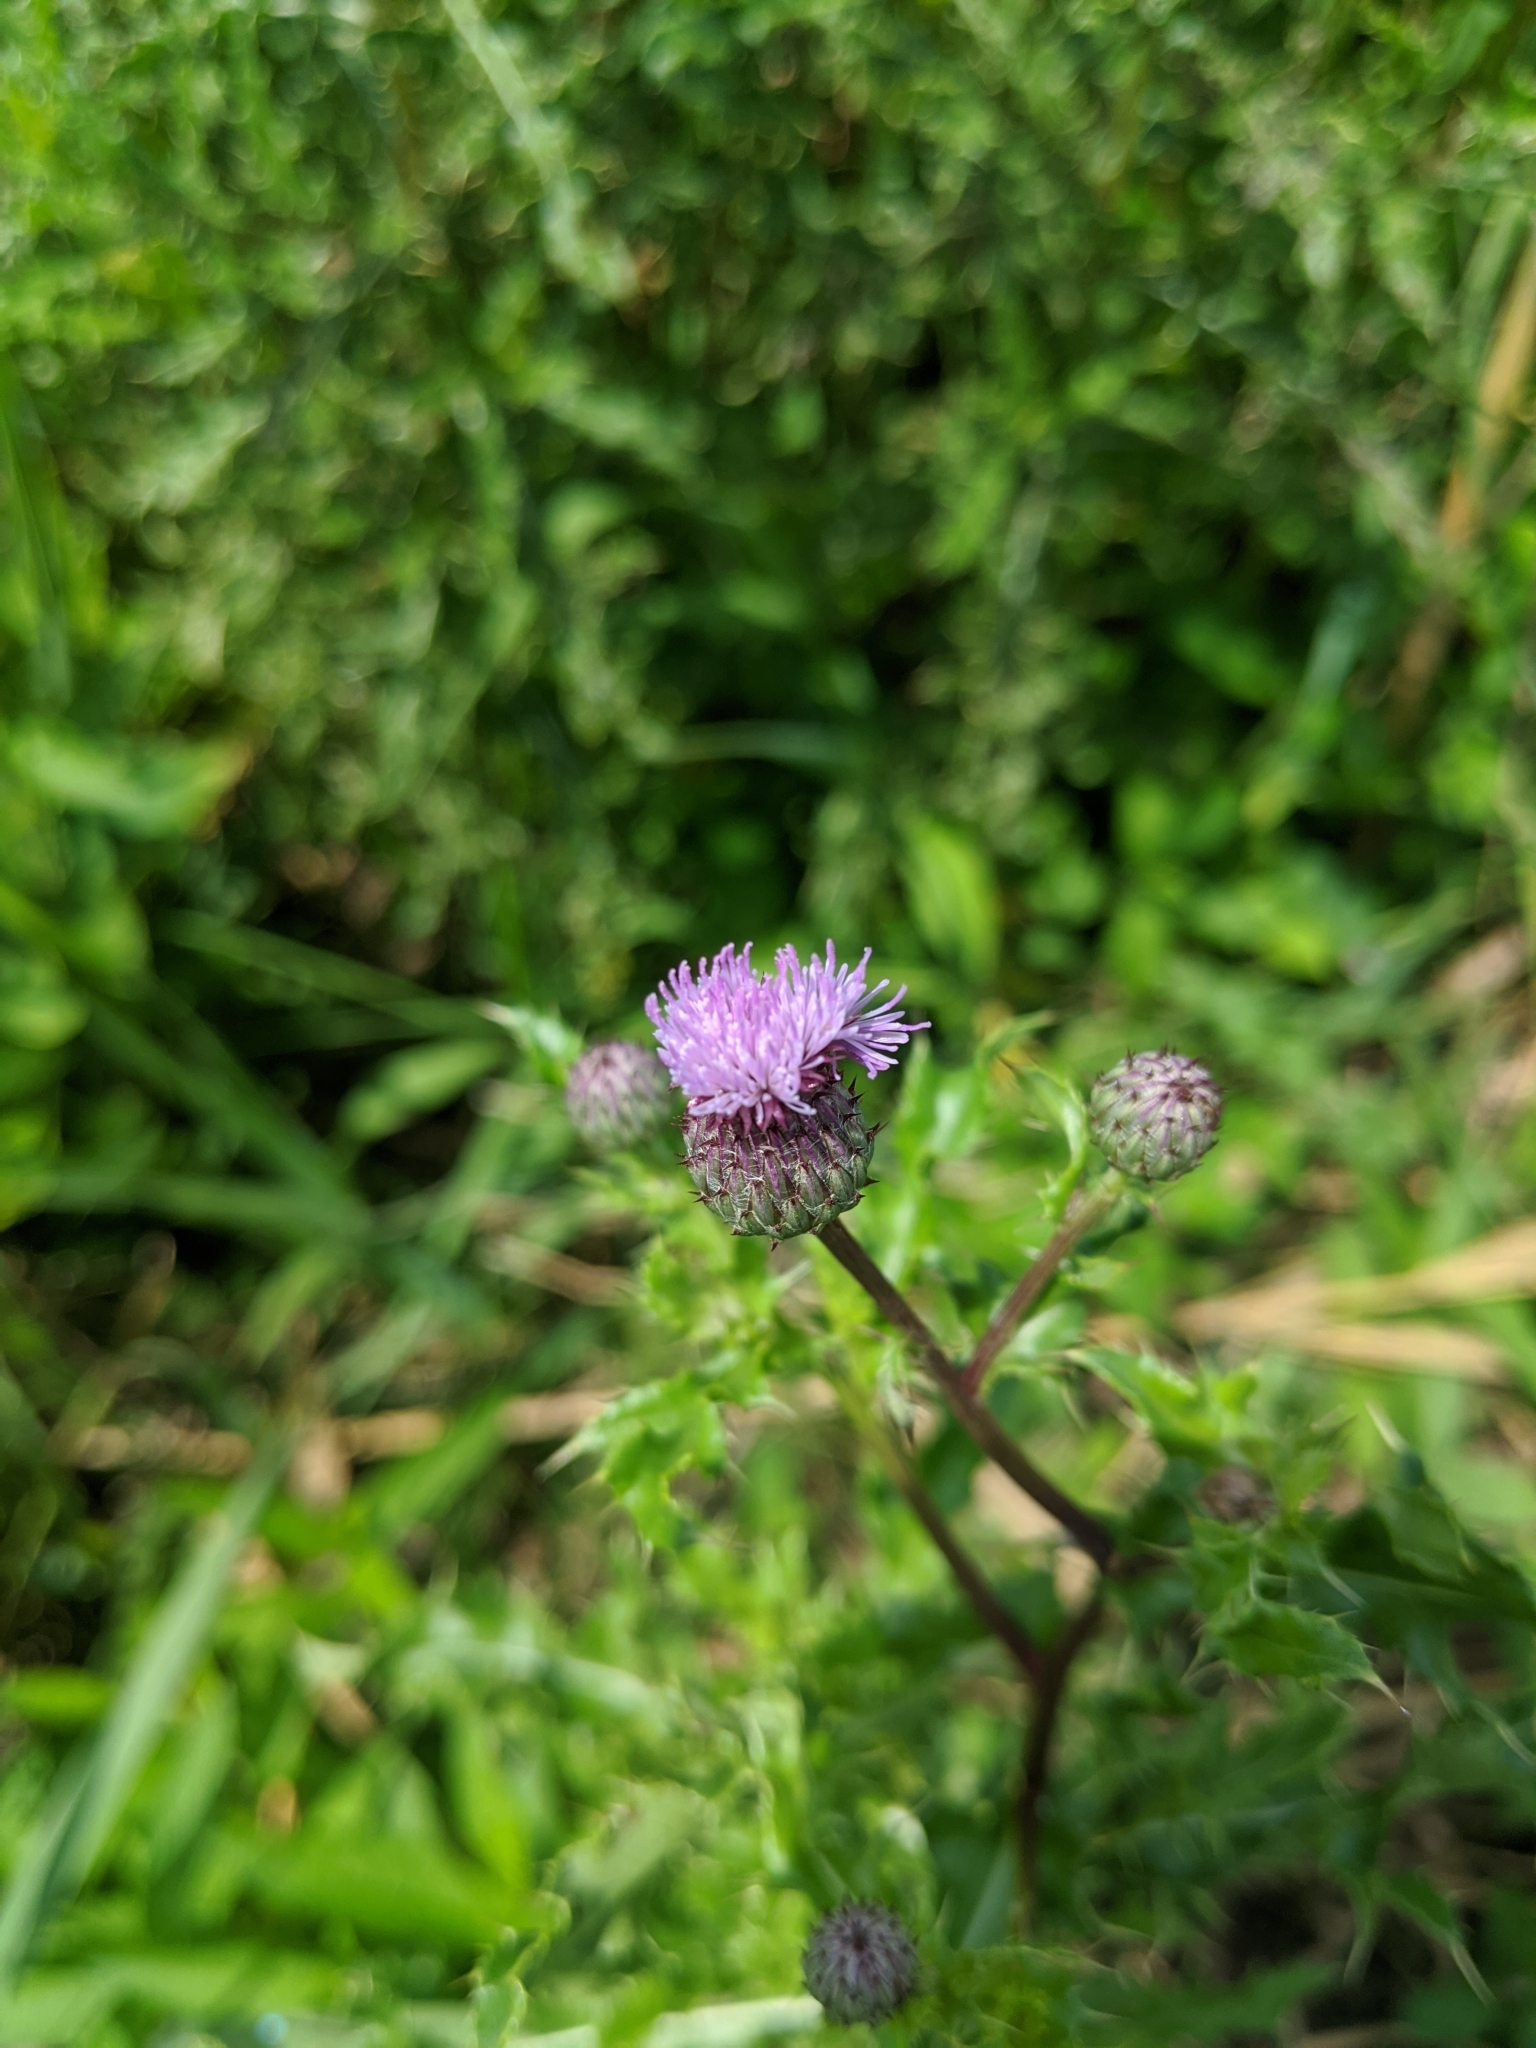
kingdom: Plantae
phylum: Tracheophyta
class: Magnoliopsida
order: Asterales
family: Asteraceae
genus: Cirsium
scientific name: Cirsium arvense
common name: Creeping thistle
